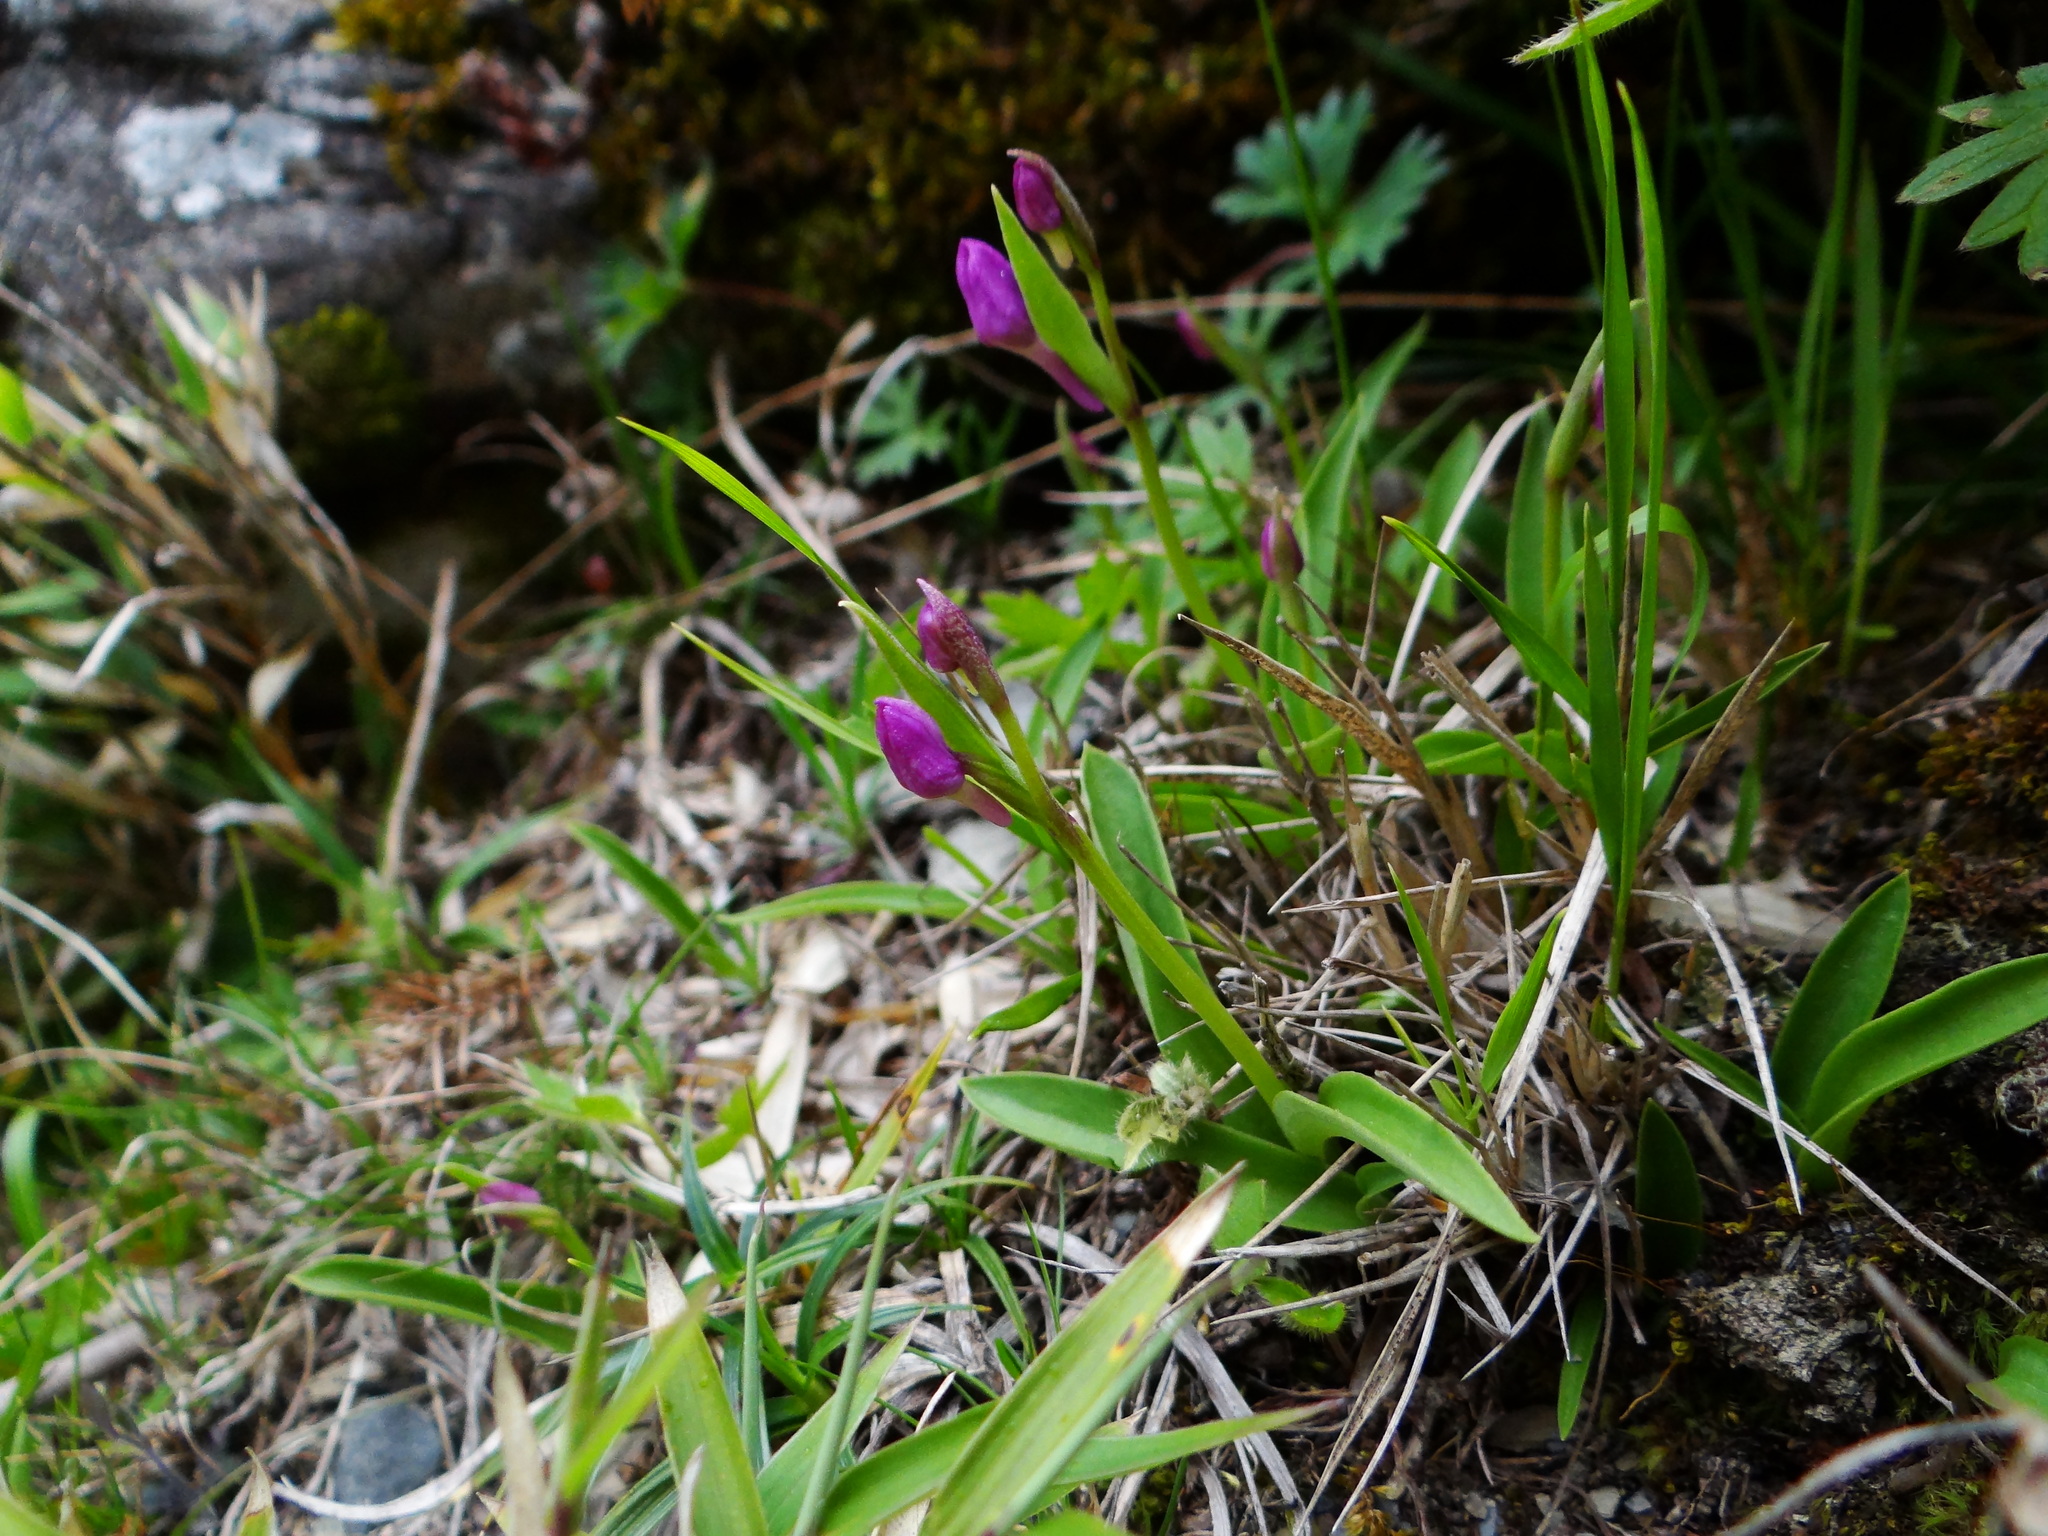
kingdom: Plantae
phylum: Tracheophyta
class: Liliopsida
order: Asparagales
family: Orchidaceae
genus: Hemipilia
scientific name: Hemipilia kiraishiensis
